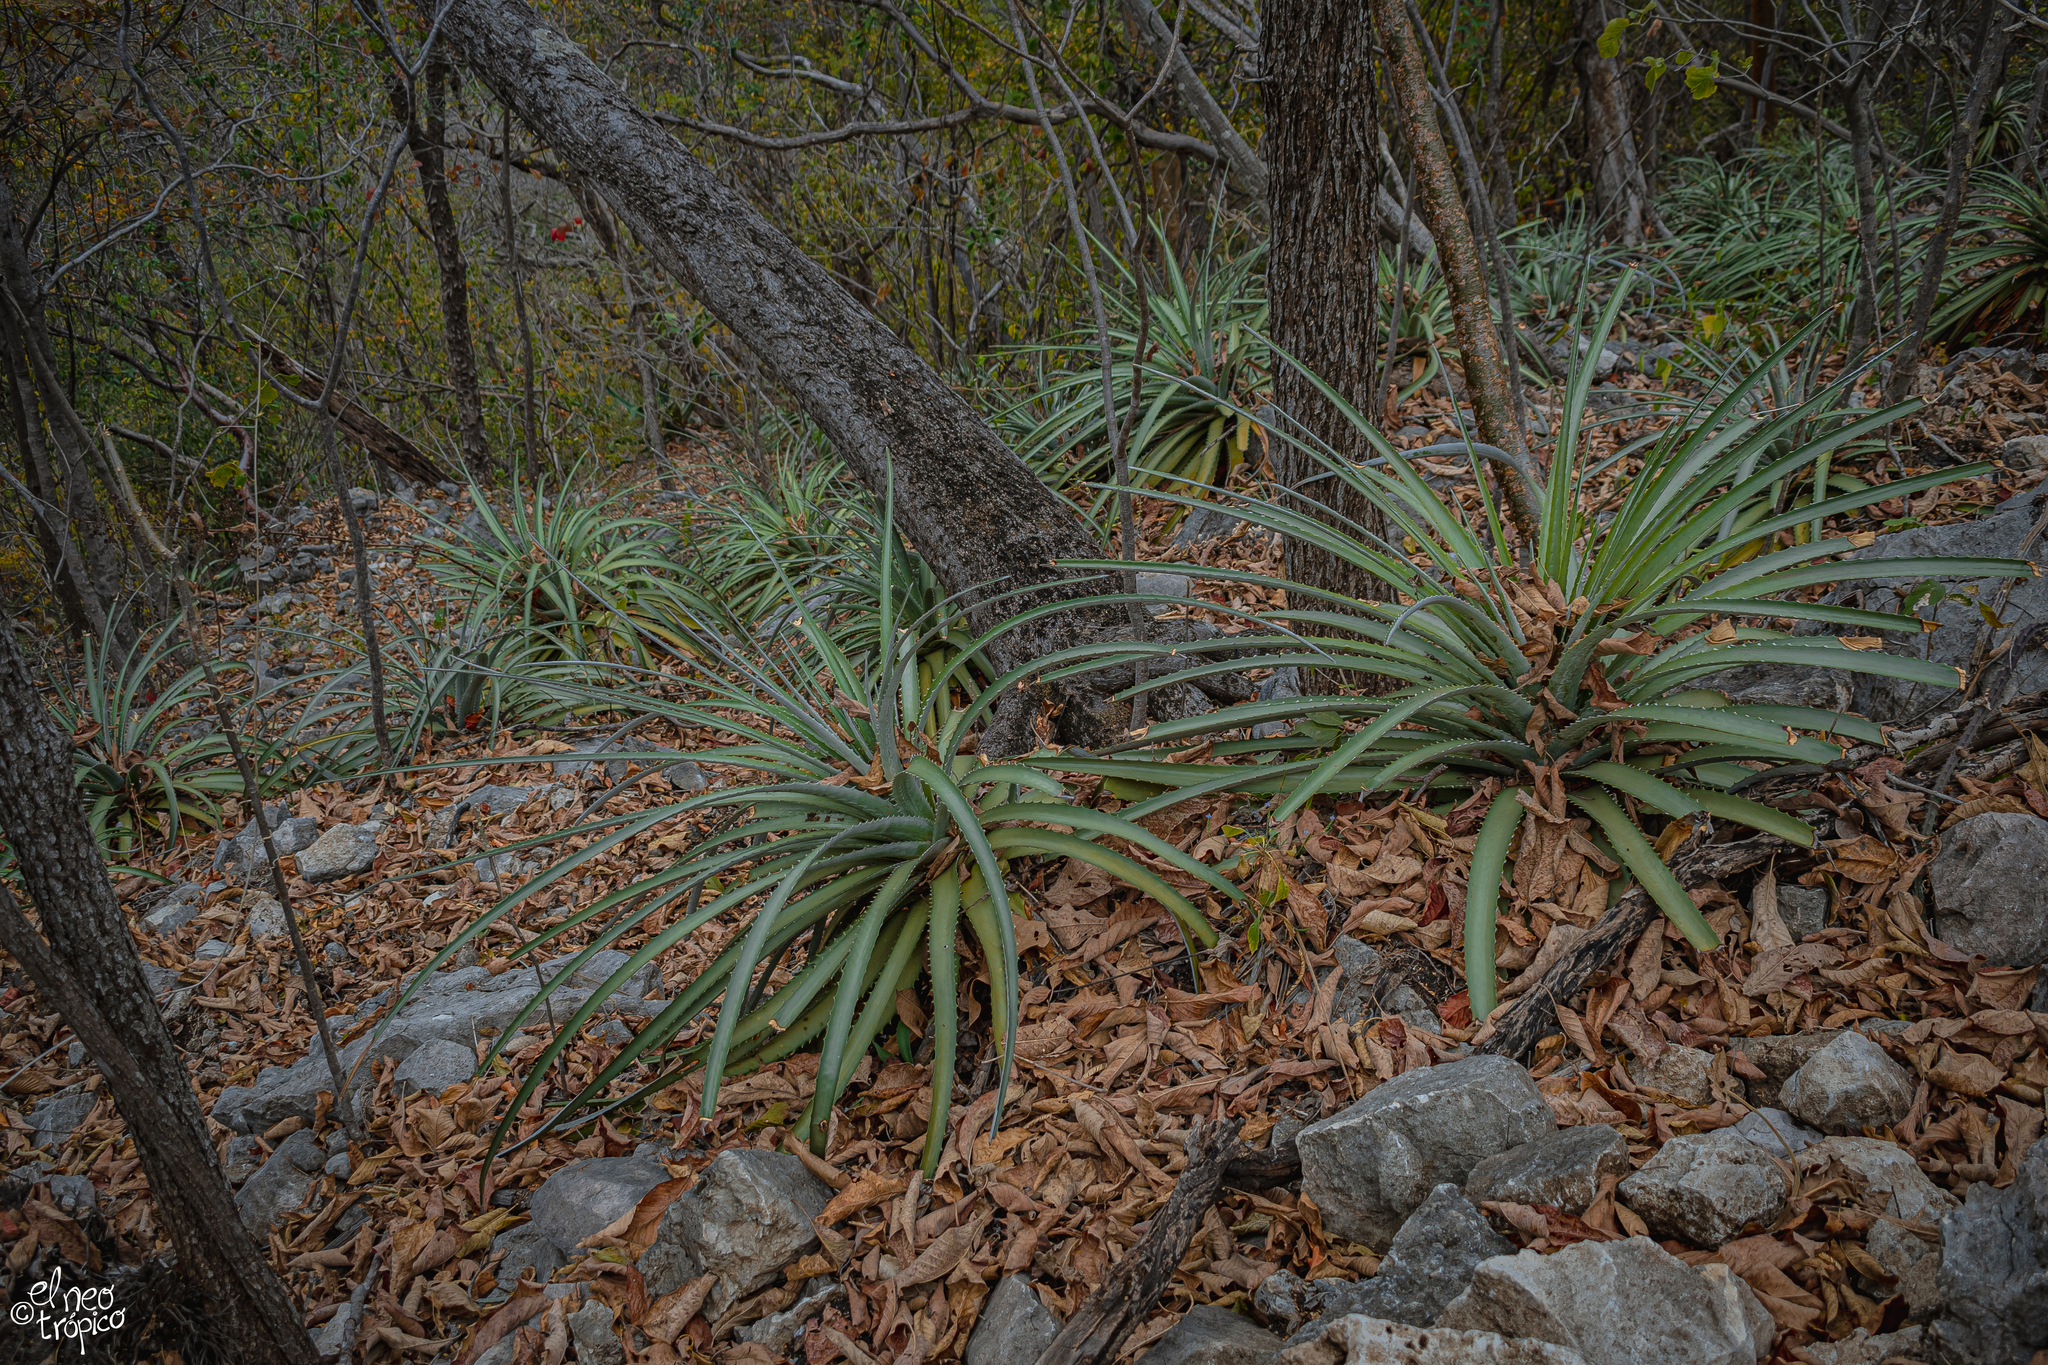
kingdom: Plantae
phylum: Tracheophyta
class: Liliopsida
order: Poales
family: Bromeliaceae
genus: Hechtia
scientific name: Hechtia glomerata
